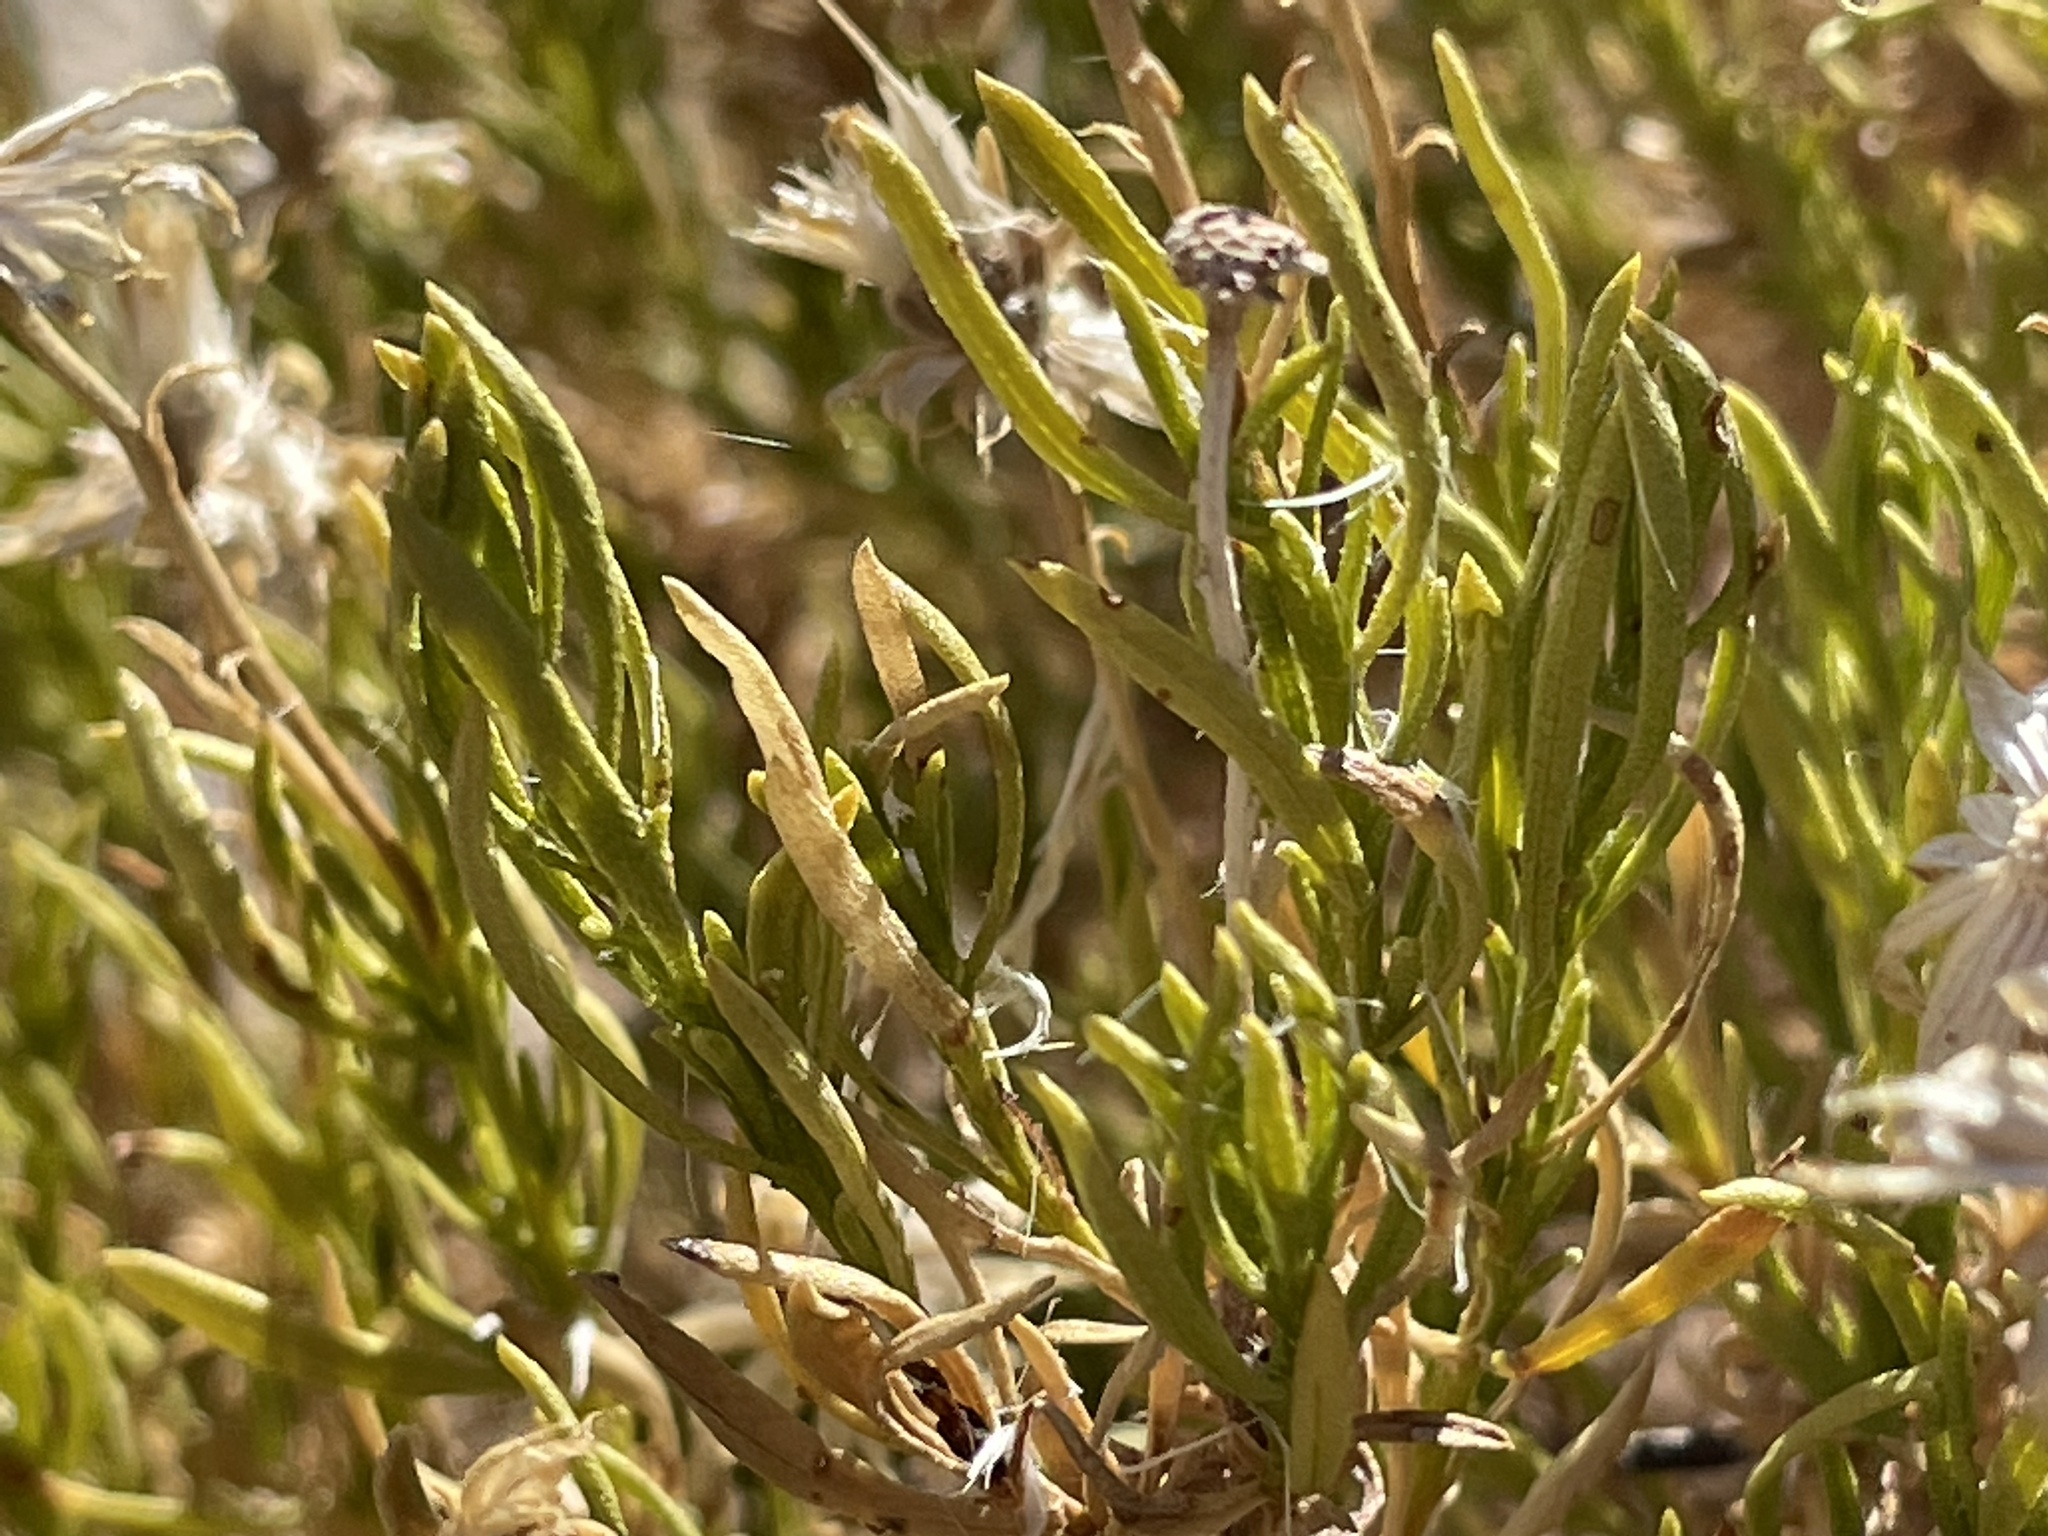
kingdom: Plantae
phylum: Tracheophyta
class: Magnoliopsida
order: Asterales
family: Asteraceae
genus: Ericameria
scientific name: Ericameria linearifolia
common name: Interior goldenbush
